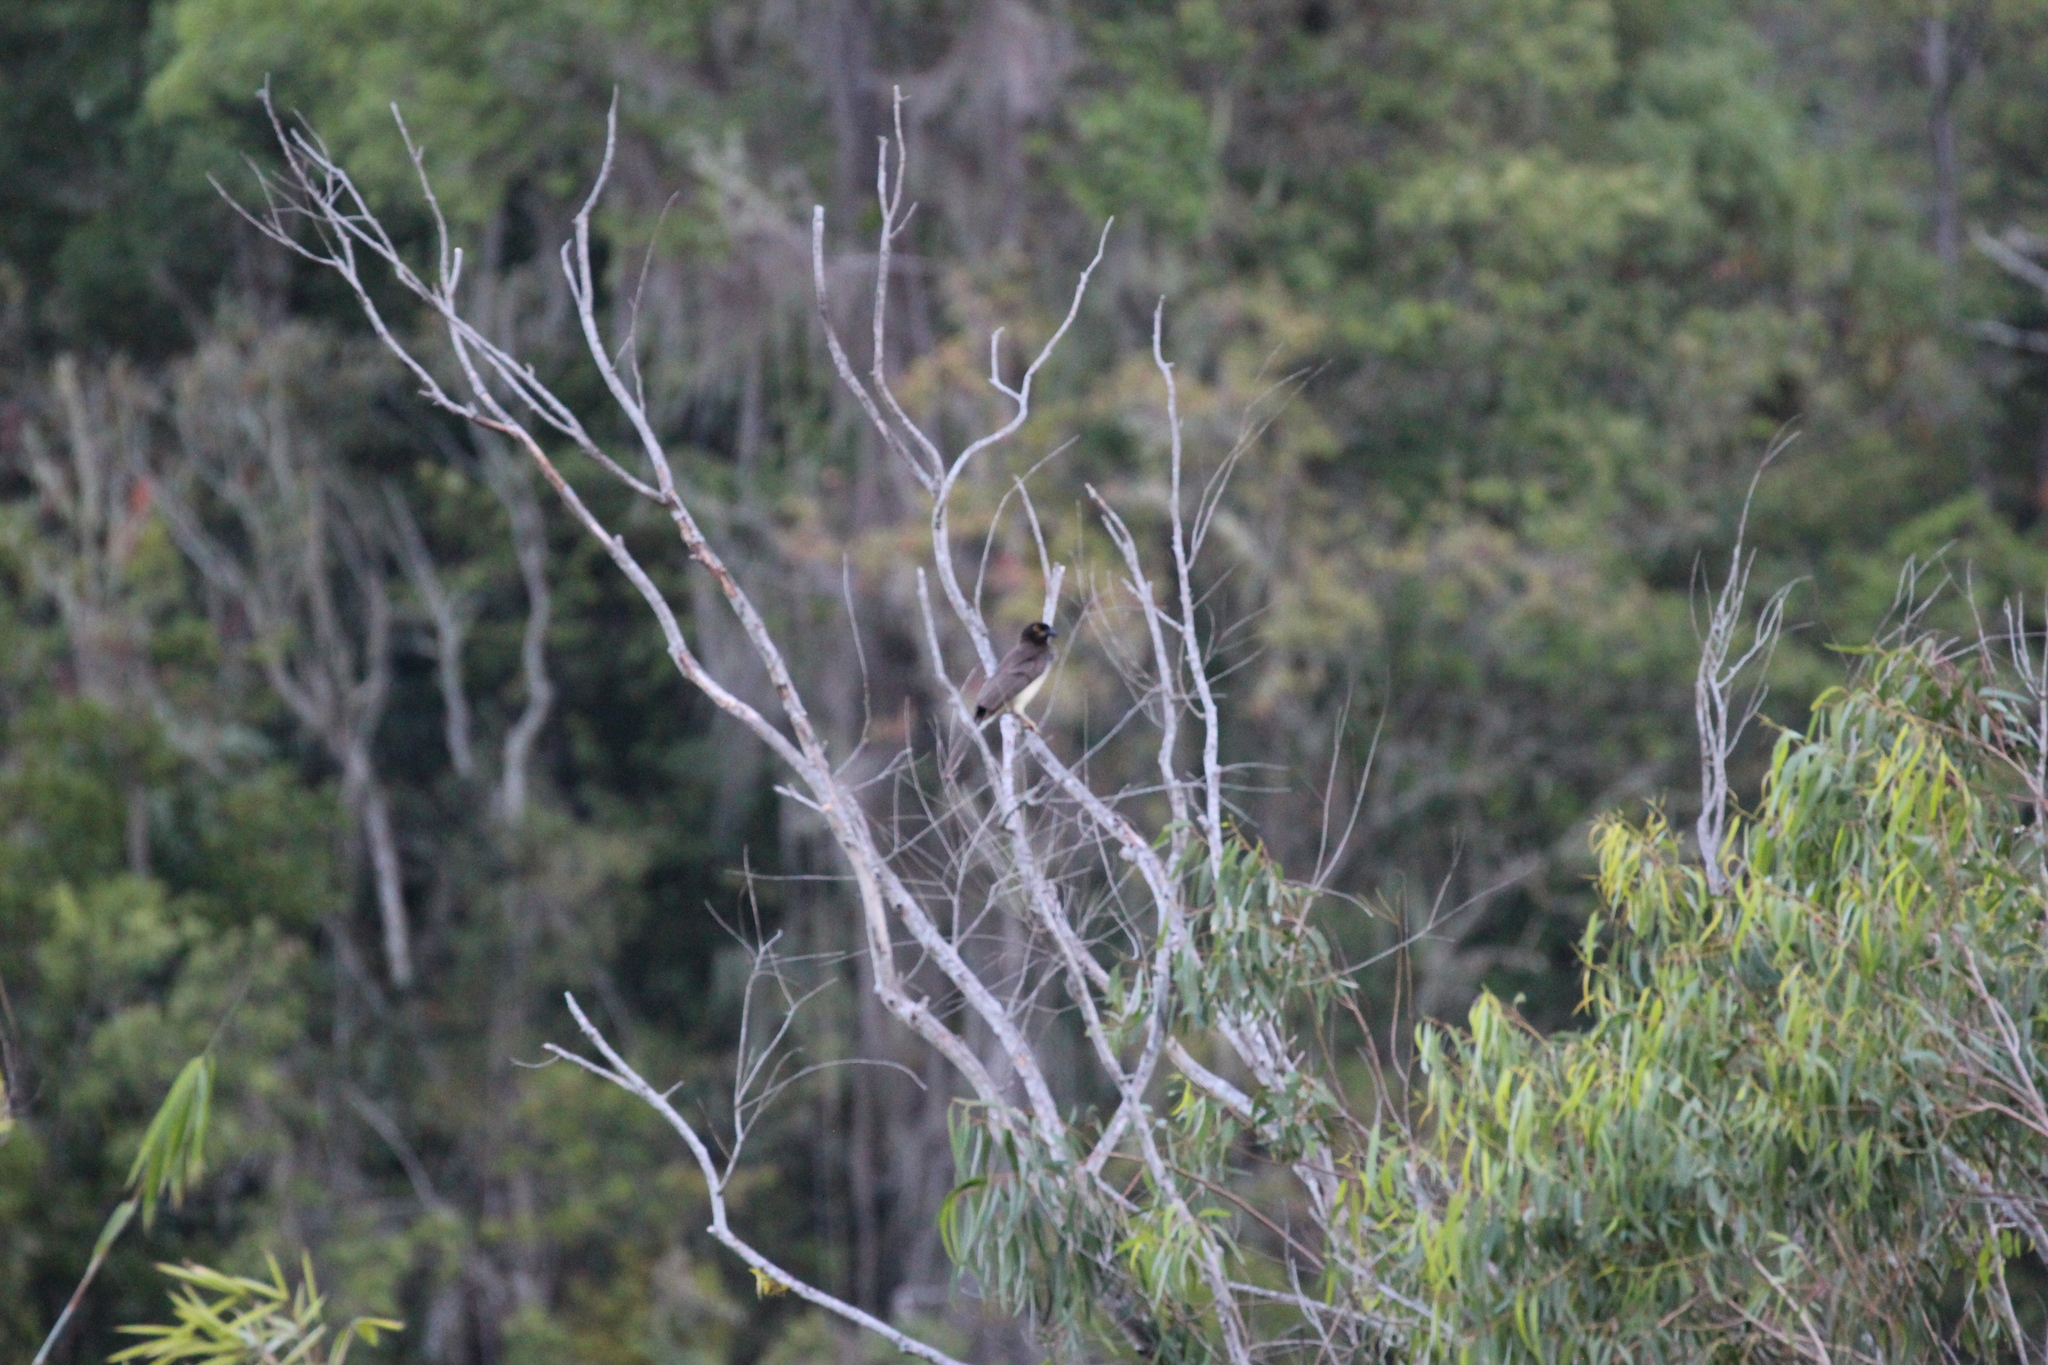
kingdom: Animalia
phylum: Chordata
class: Aves
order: Passeriformes
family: Corvidae
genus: Psilorhinus
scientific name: Psilorhinus morio
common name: Brown jay
